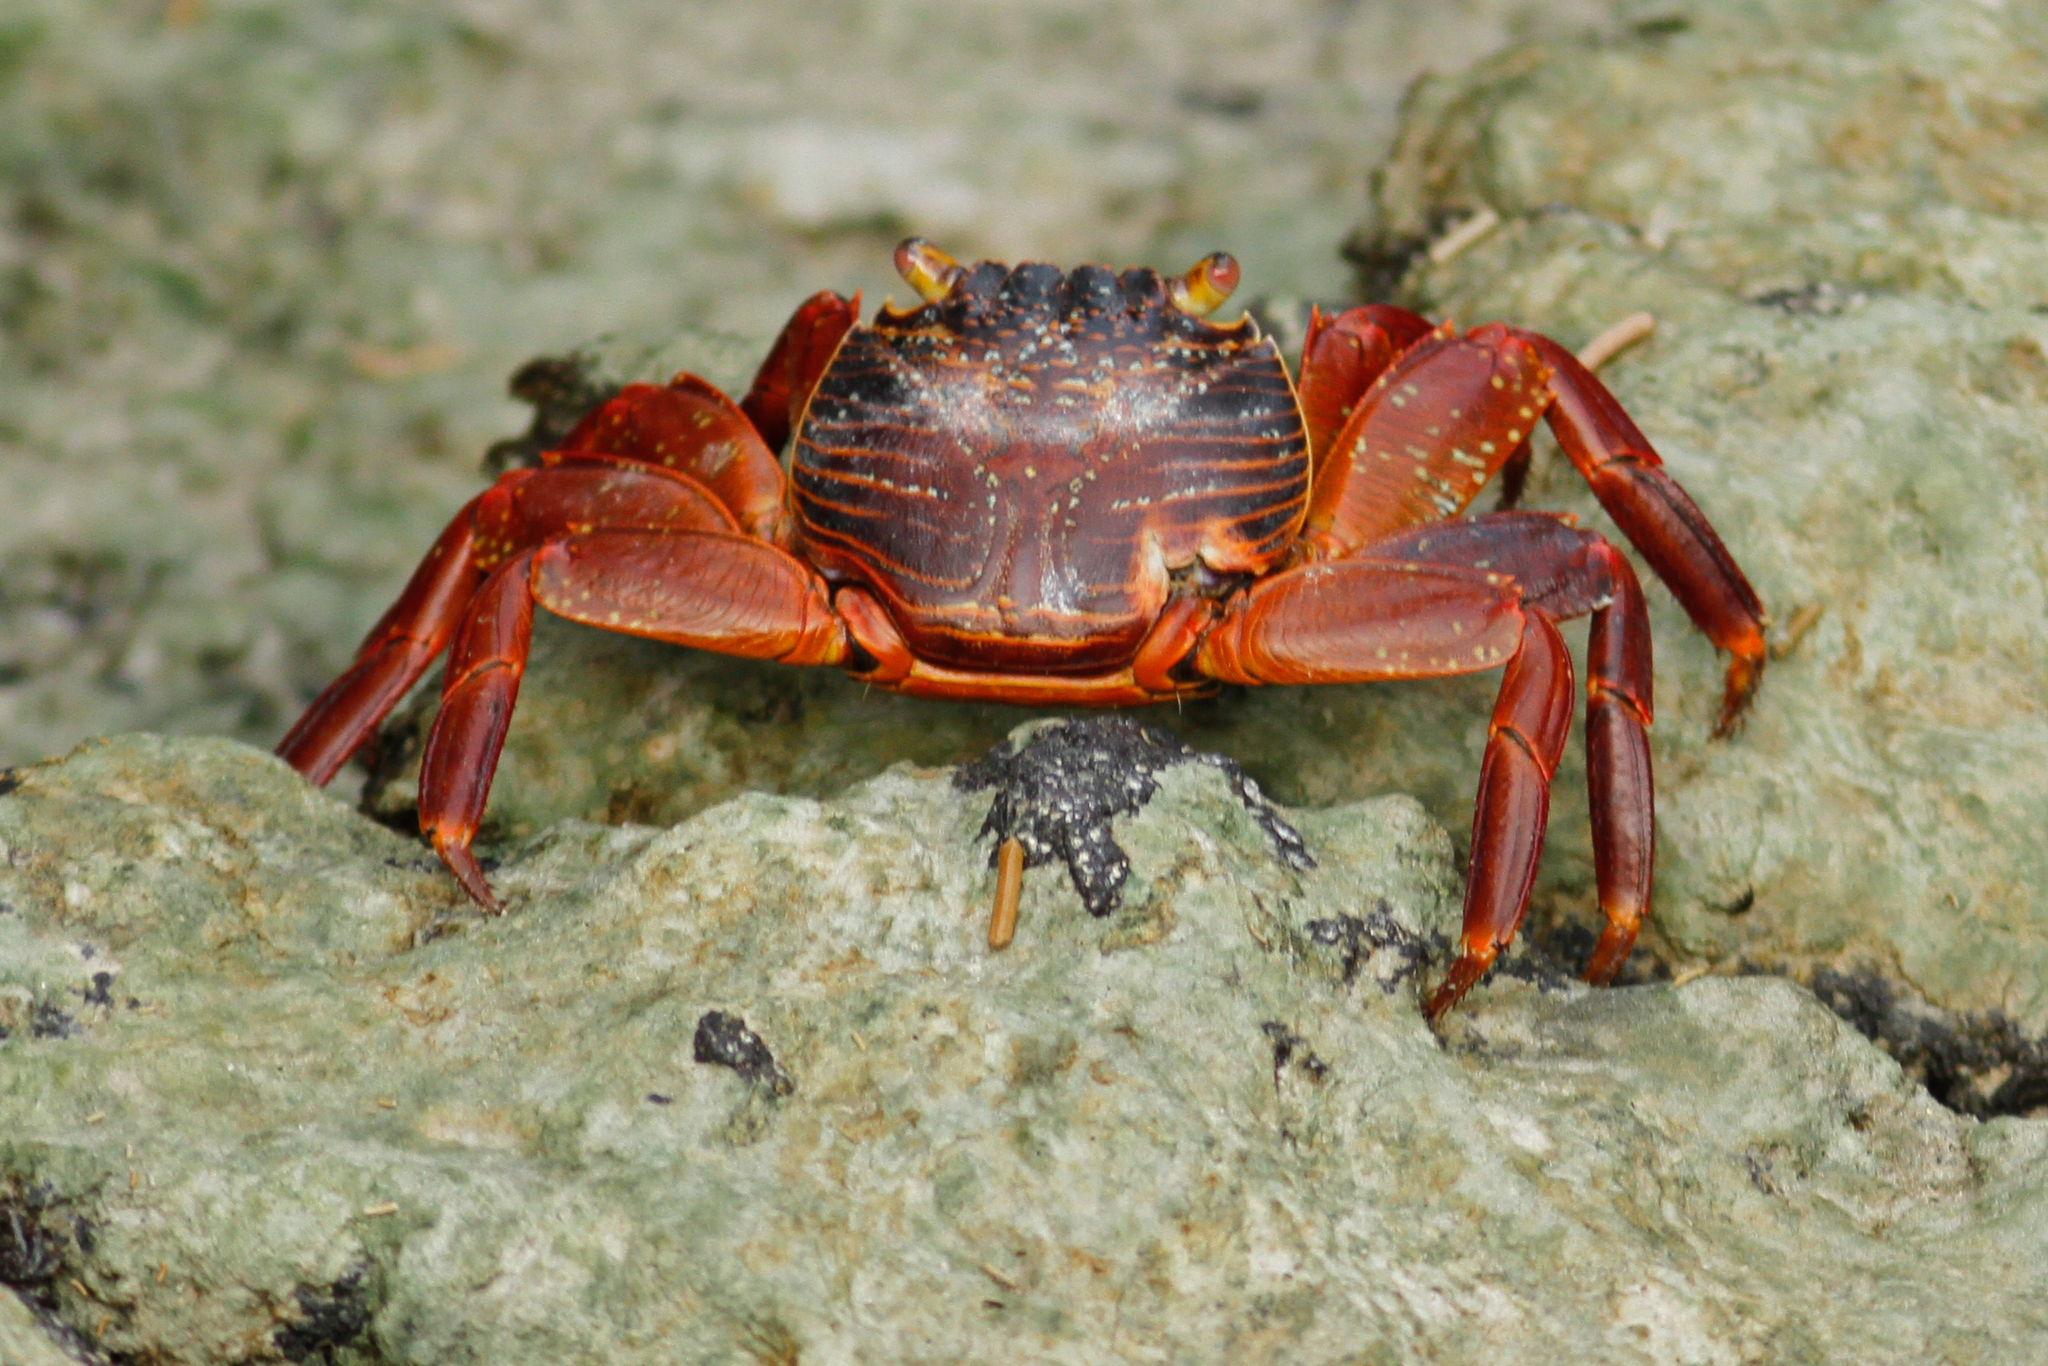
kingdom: Animalia
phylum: Arthropoda
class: Malacostraca
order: Decapoda
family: Grapsidae
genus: Grapsus
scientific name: Grapsus grapsus
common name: Sally lightfoot
